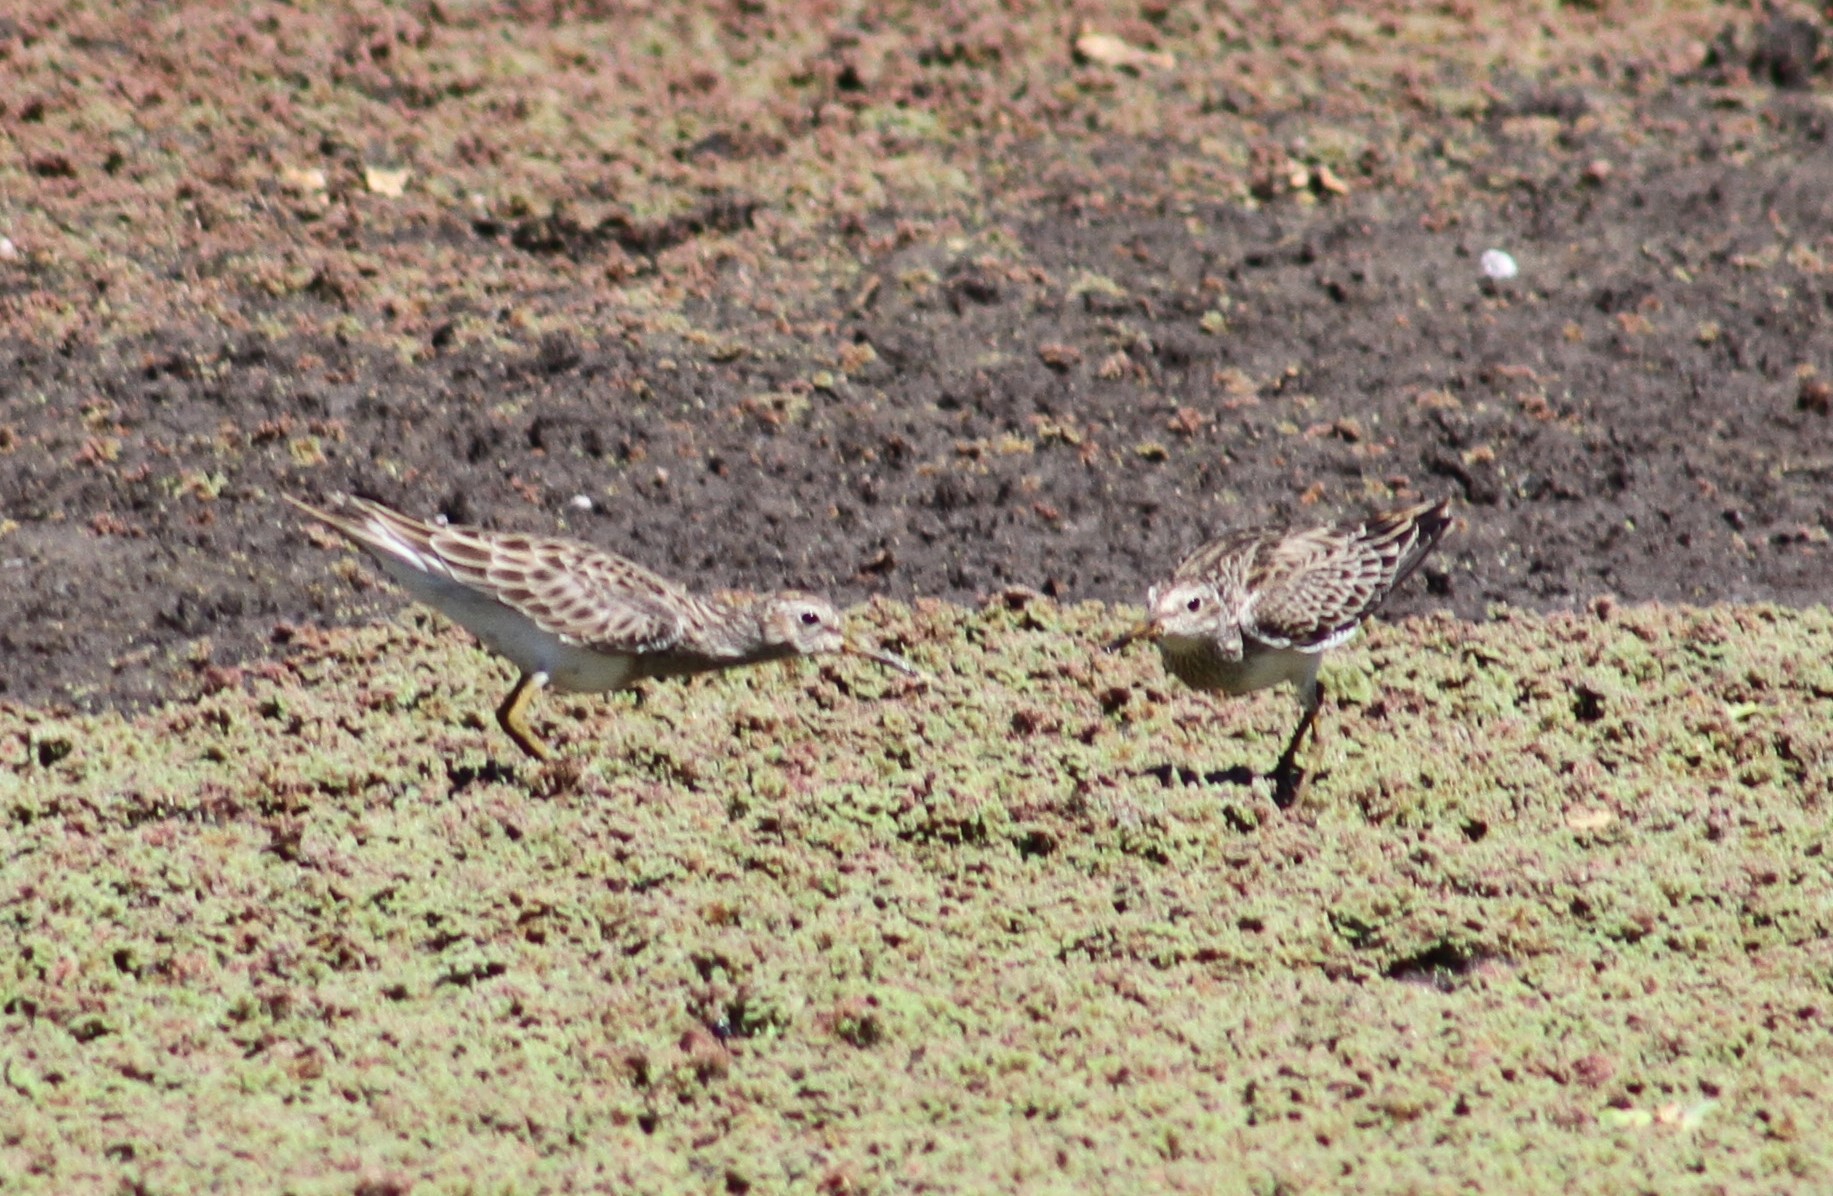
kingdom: Animalia
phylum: Chordata
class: Aves
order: Charadriiformes
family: Scolopacidae
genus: Calidris
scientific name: Calidris melanotos
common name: Pectoral sandpiper
